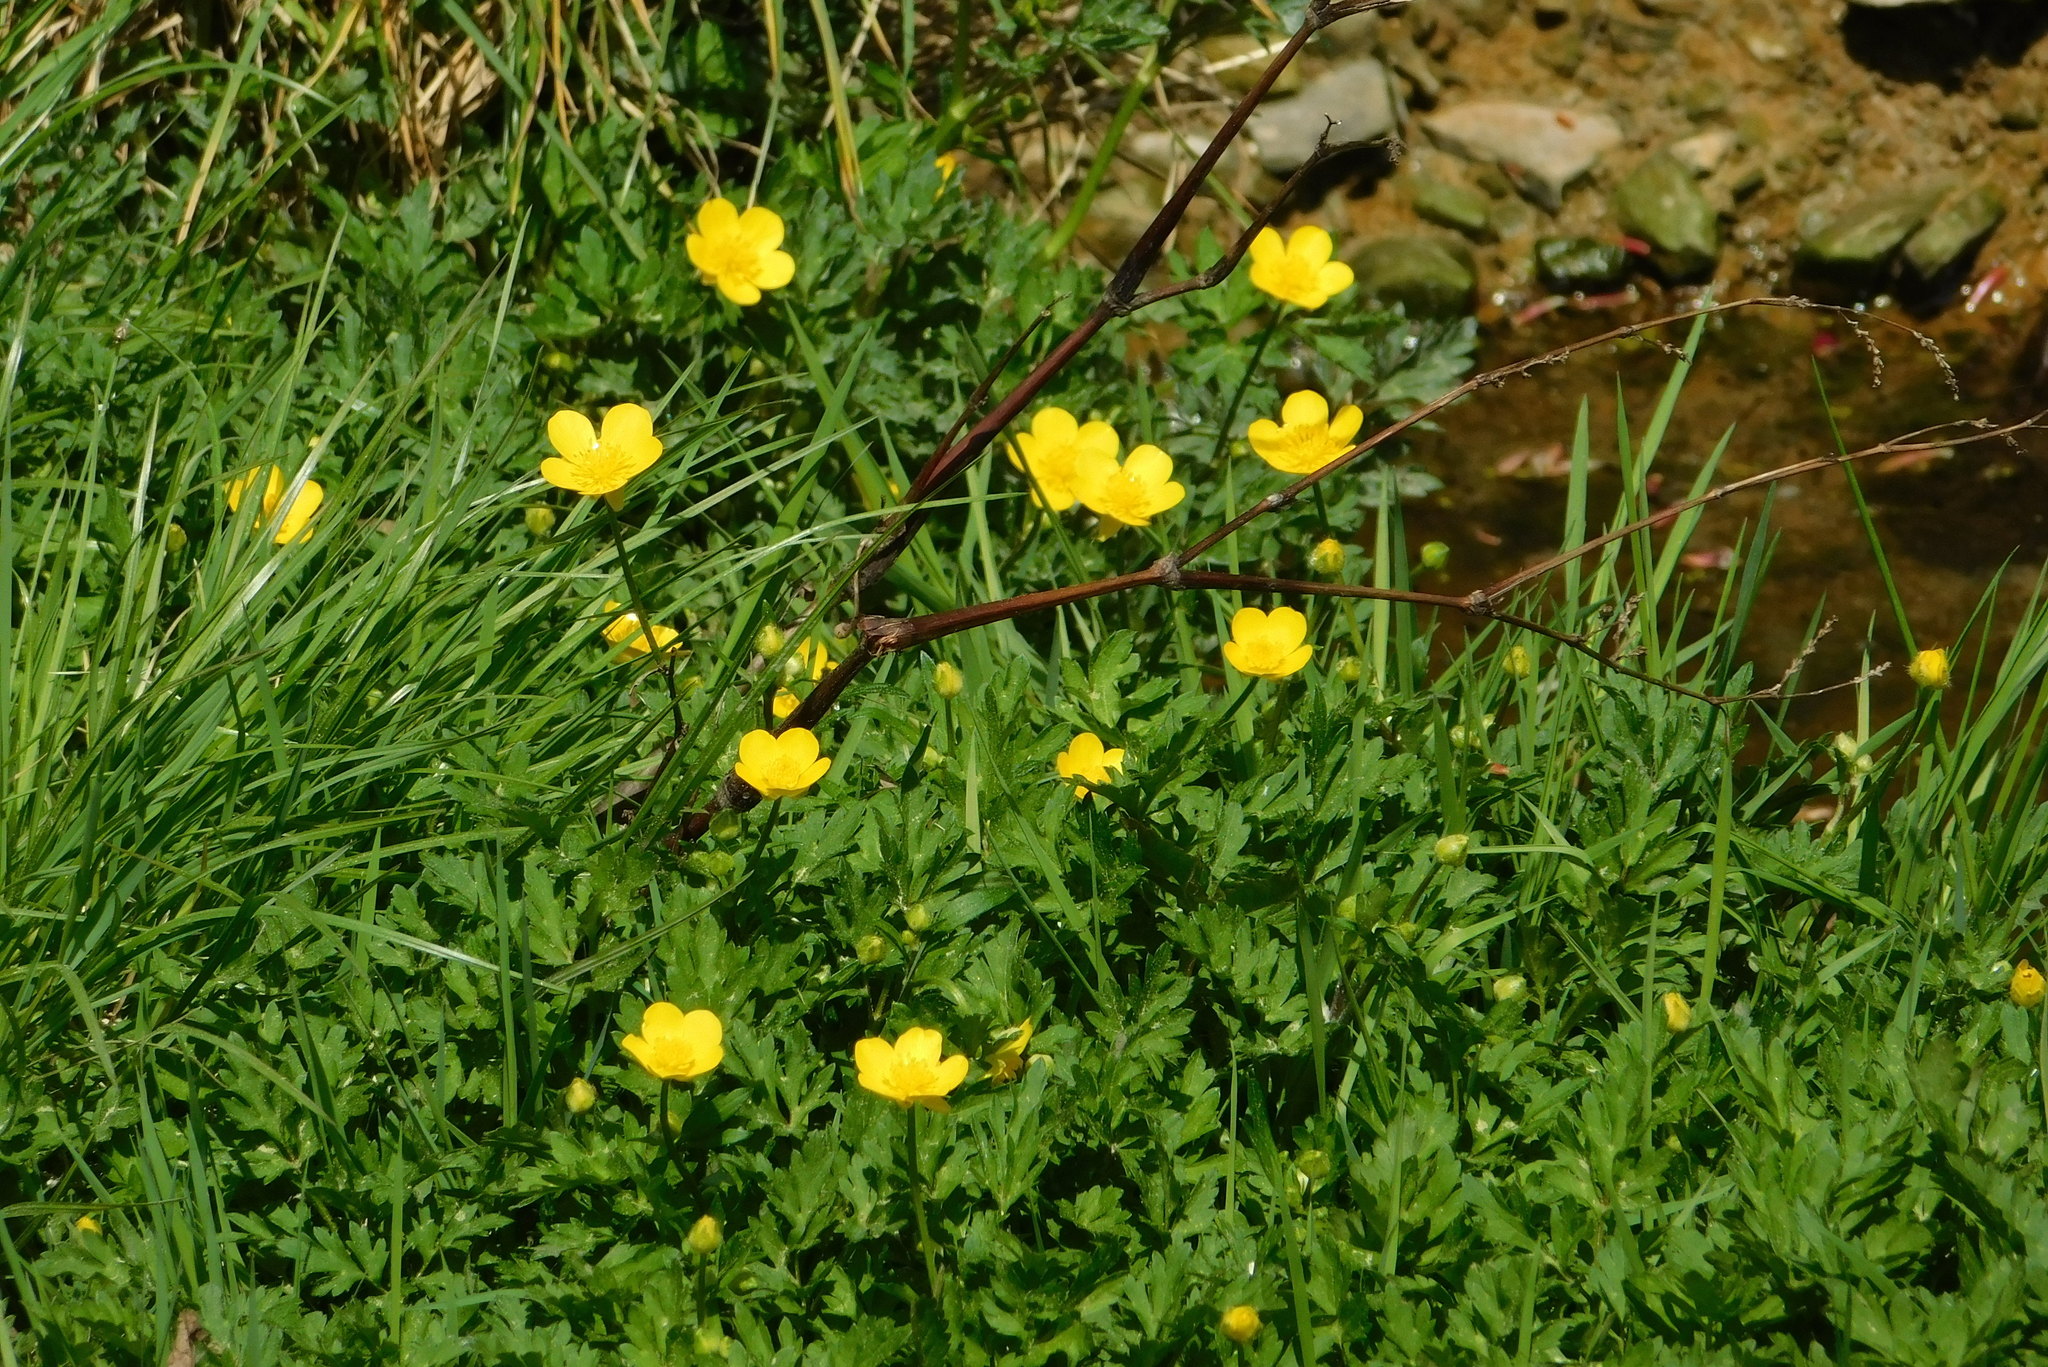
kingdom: Plantae
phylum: Tracheophyta
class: Magnoliopsida
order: Ranunculales
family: Ranunculaceae
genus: Ranunculus
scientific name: Ranunculus repens
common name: Creeping buttercup
